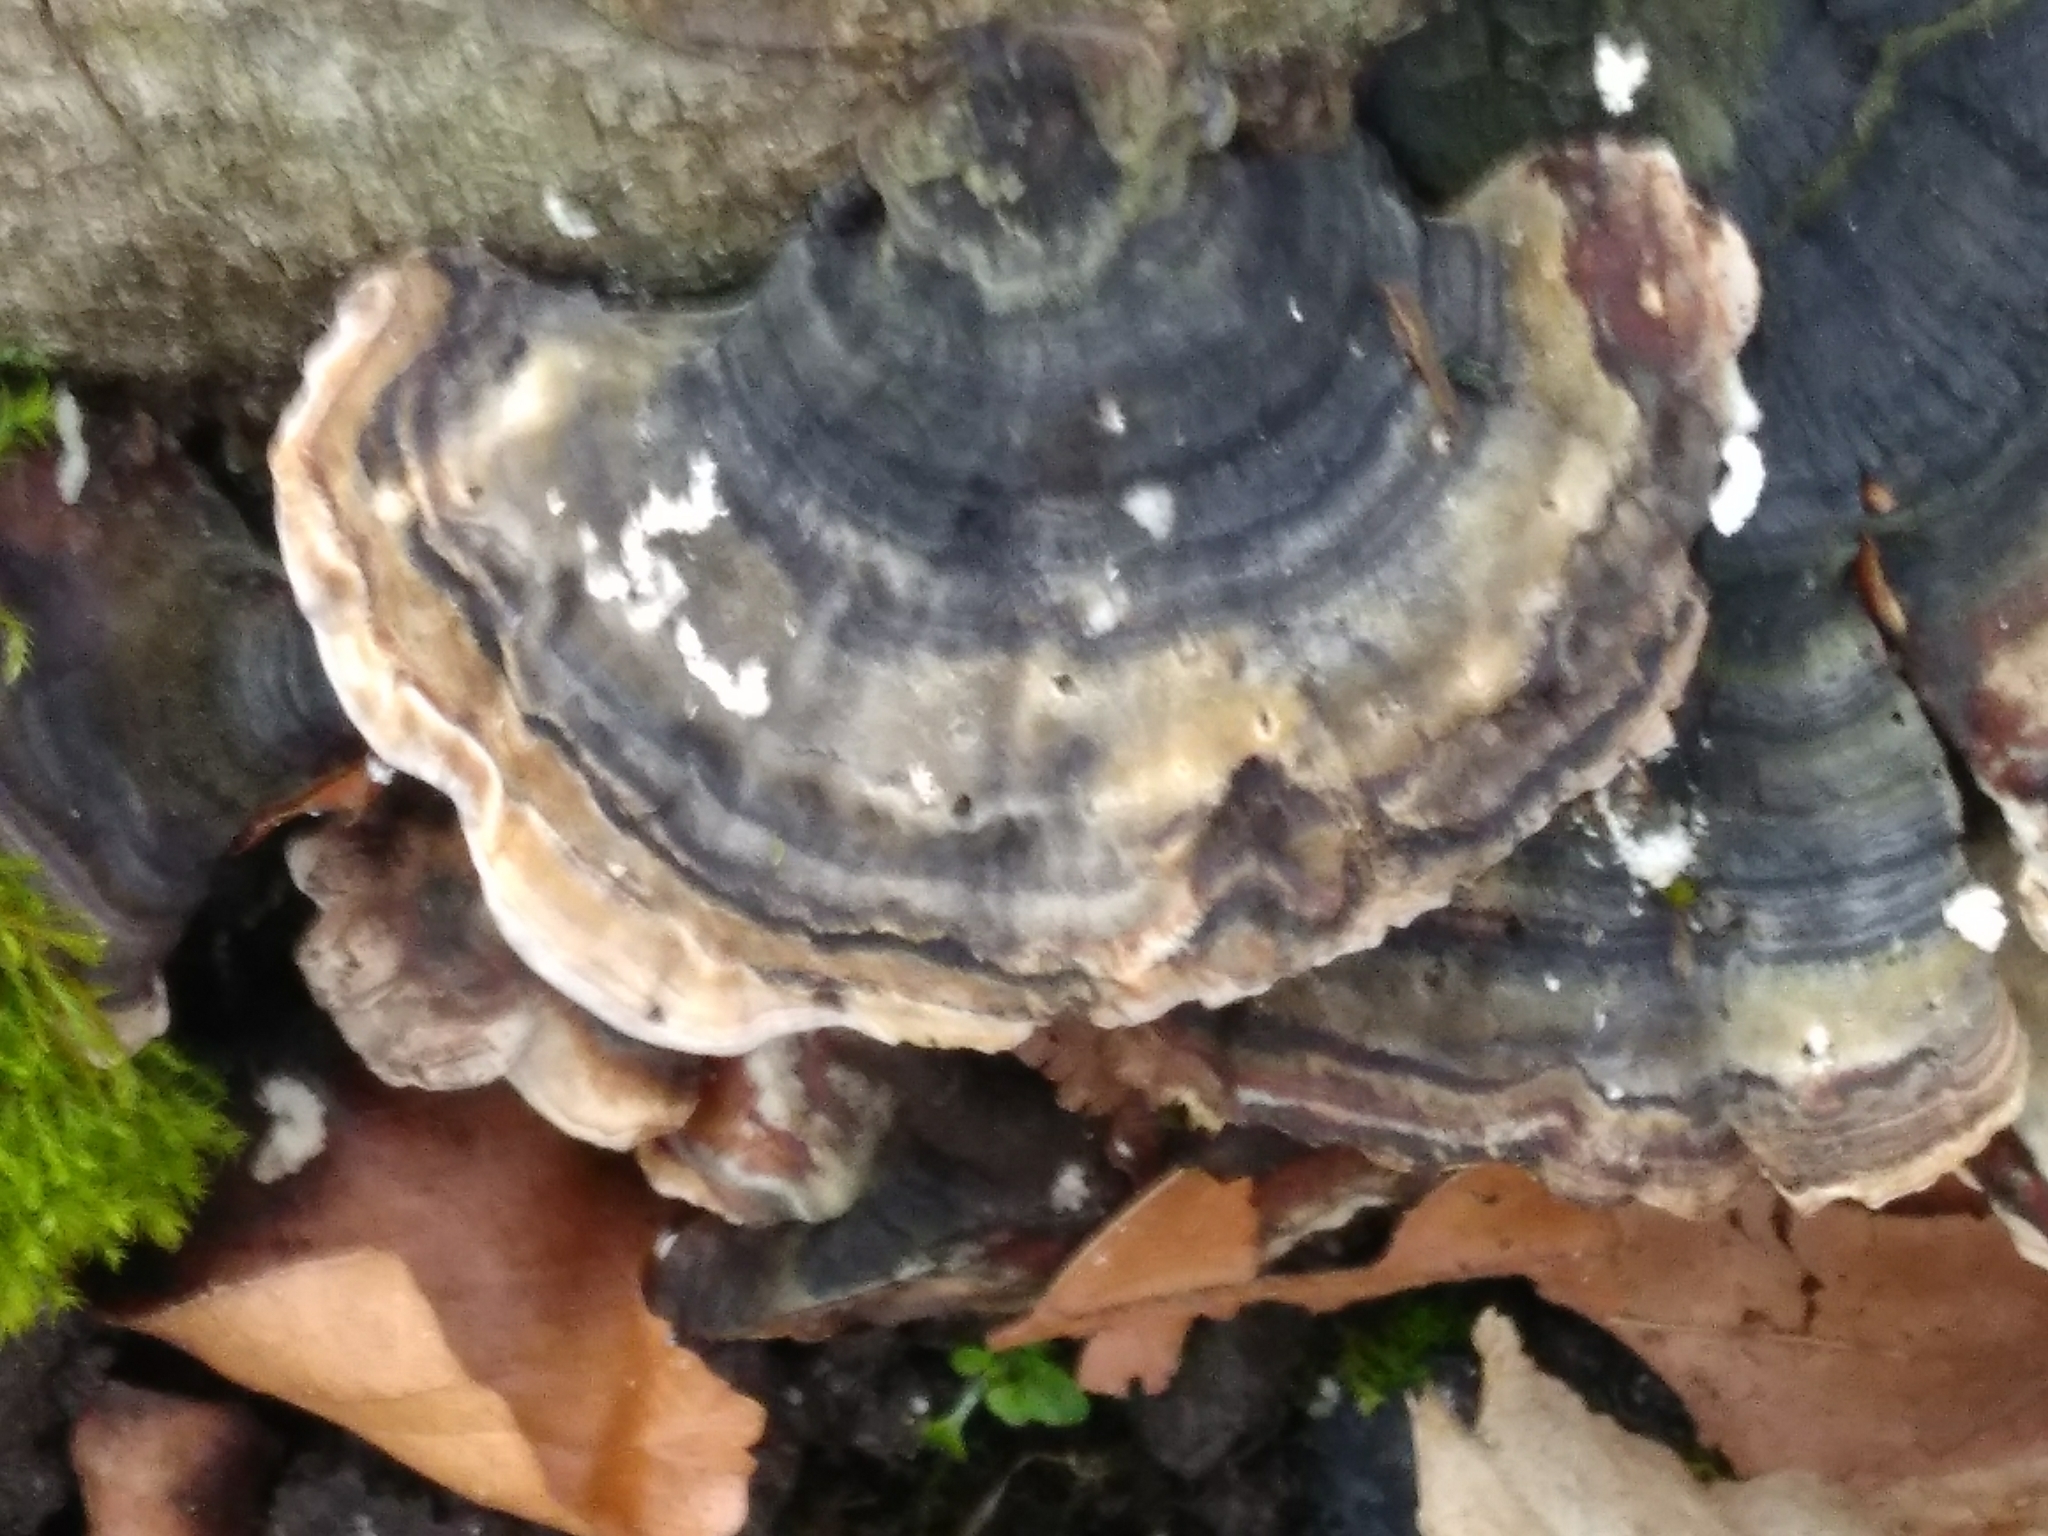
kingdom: Fungi
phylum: Basidiomycota
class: Agaricomycetes
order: Polyporales
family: Polyporaceae
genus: Trametes
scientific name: Trametes versicolor
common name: Turkeytail
